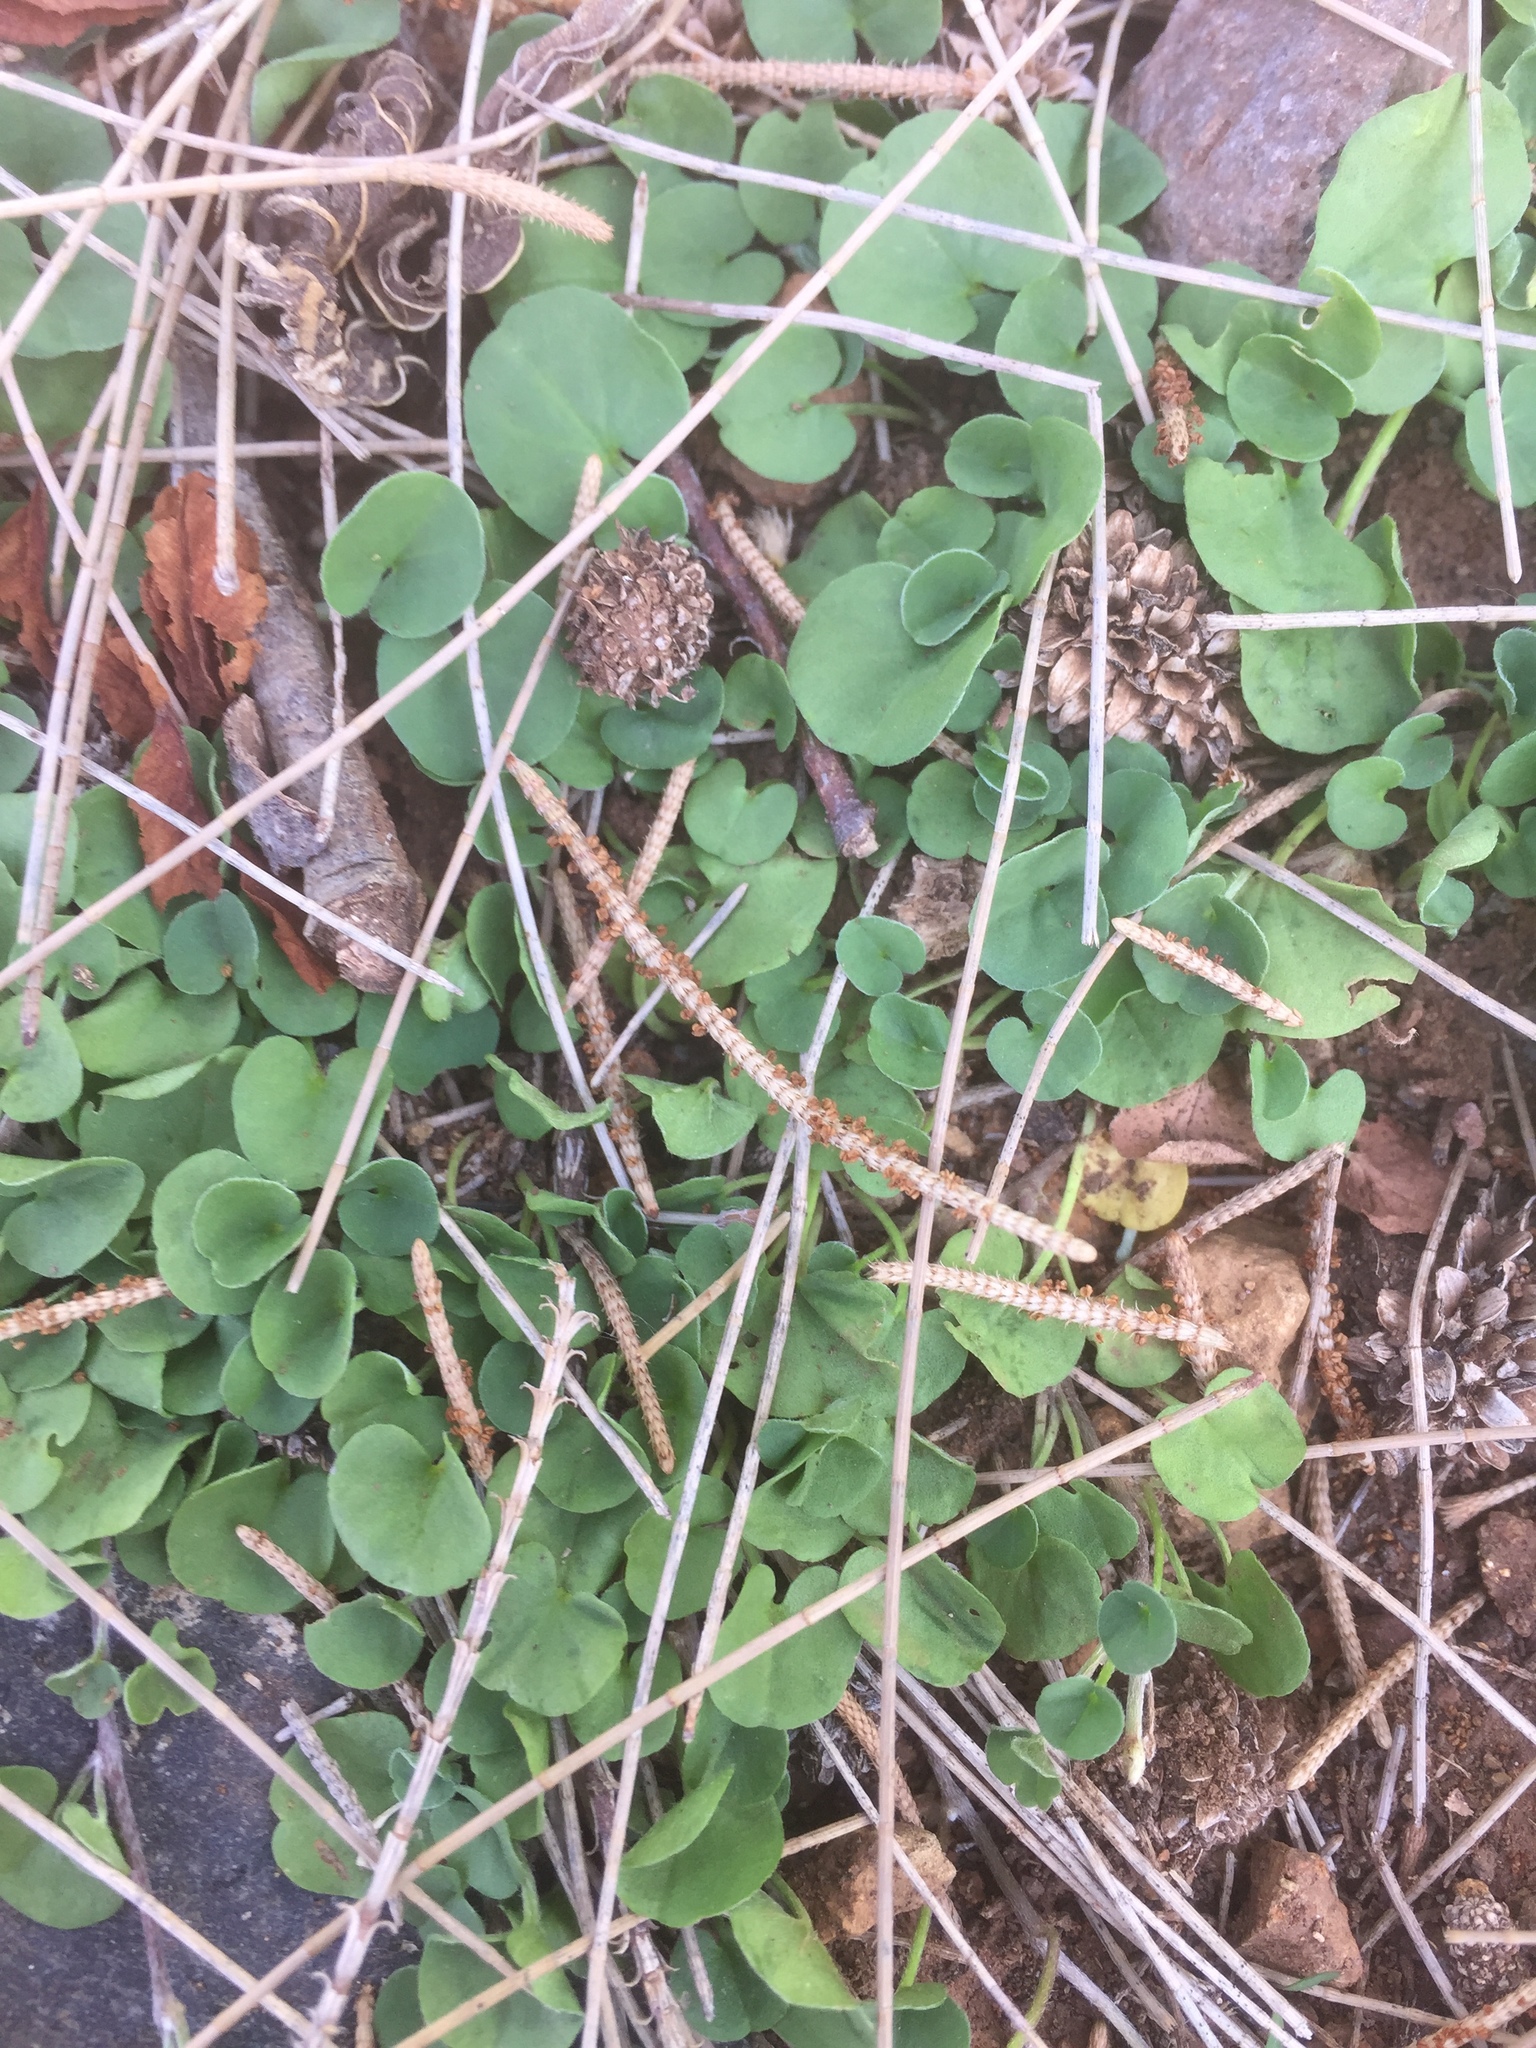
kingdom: Plantae
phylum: Tracheophyta
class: Magnoliopsida
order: Solanales
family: Convolvulaceae
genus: Dichondra
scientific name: Dichondra repens
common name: Kidneyweed
